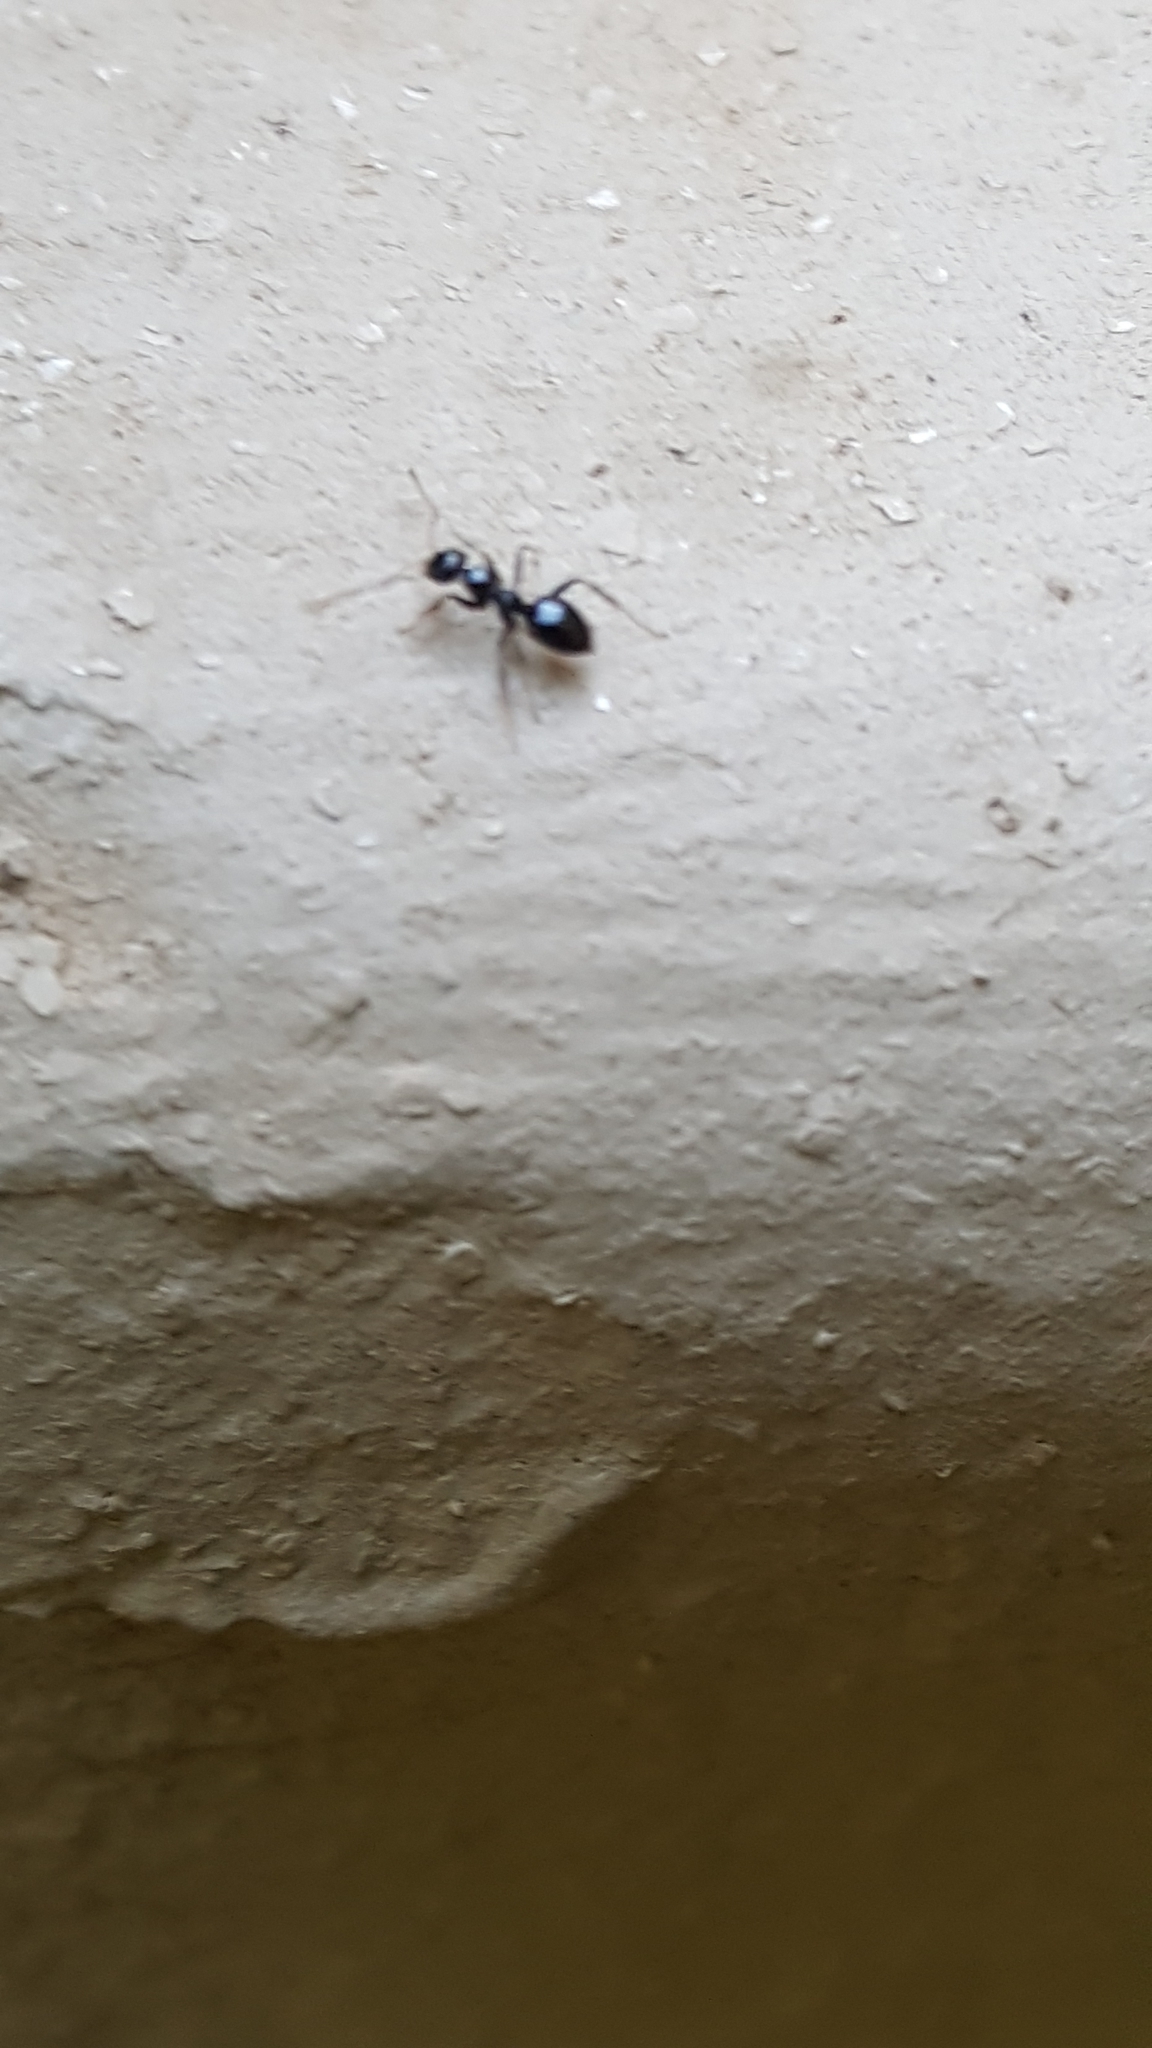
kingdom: Animalia
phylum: Arthropoda
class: Insecta
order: Hymenoptera
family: Formicidae
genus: Lepisiota
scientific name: Lepisiota capensis
